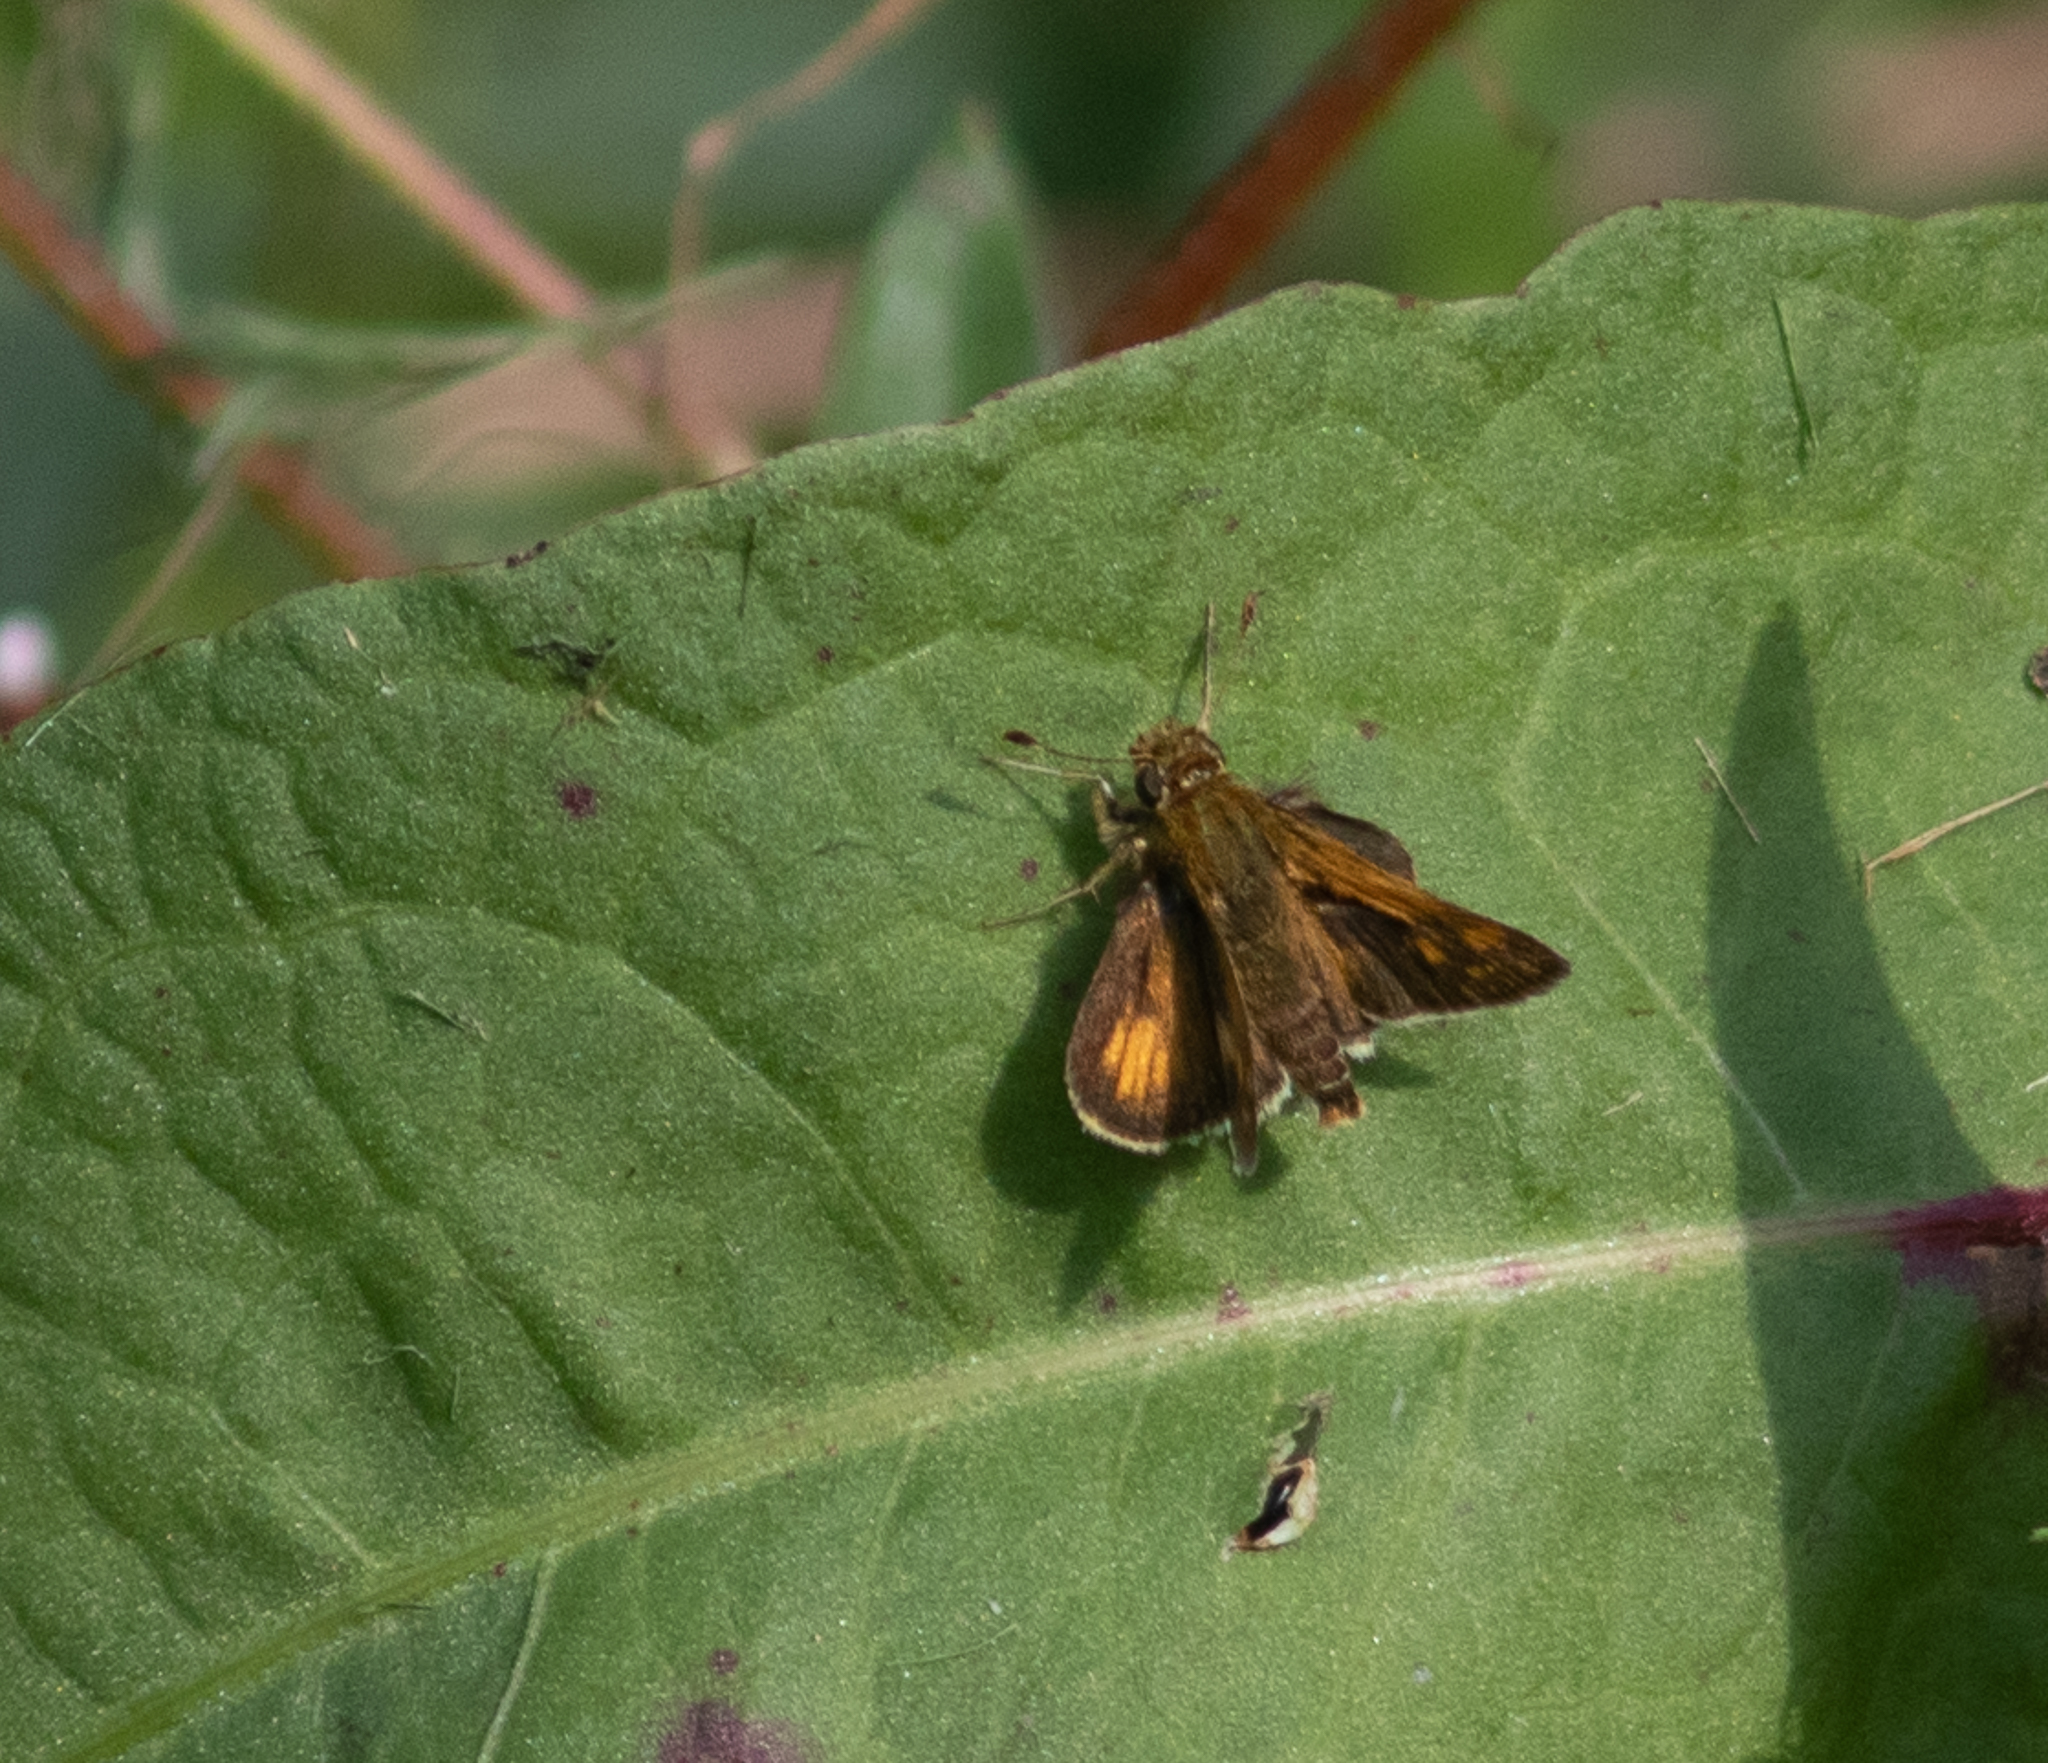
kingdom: Animalia
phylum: Arthropoda
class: Insecta
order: Lepidoptera
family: Hesperiidae
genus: Polites
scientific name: Polites coras
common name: Peck's skipper
